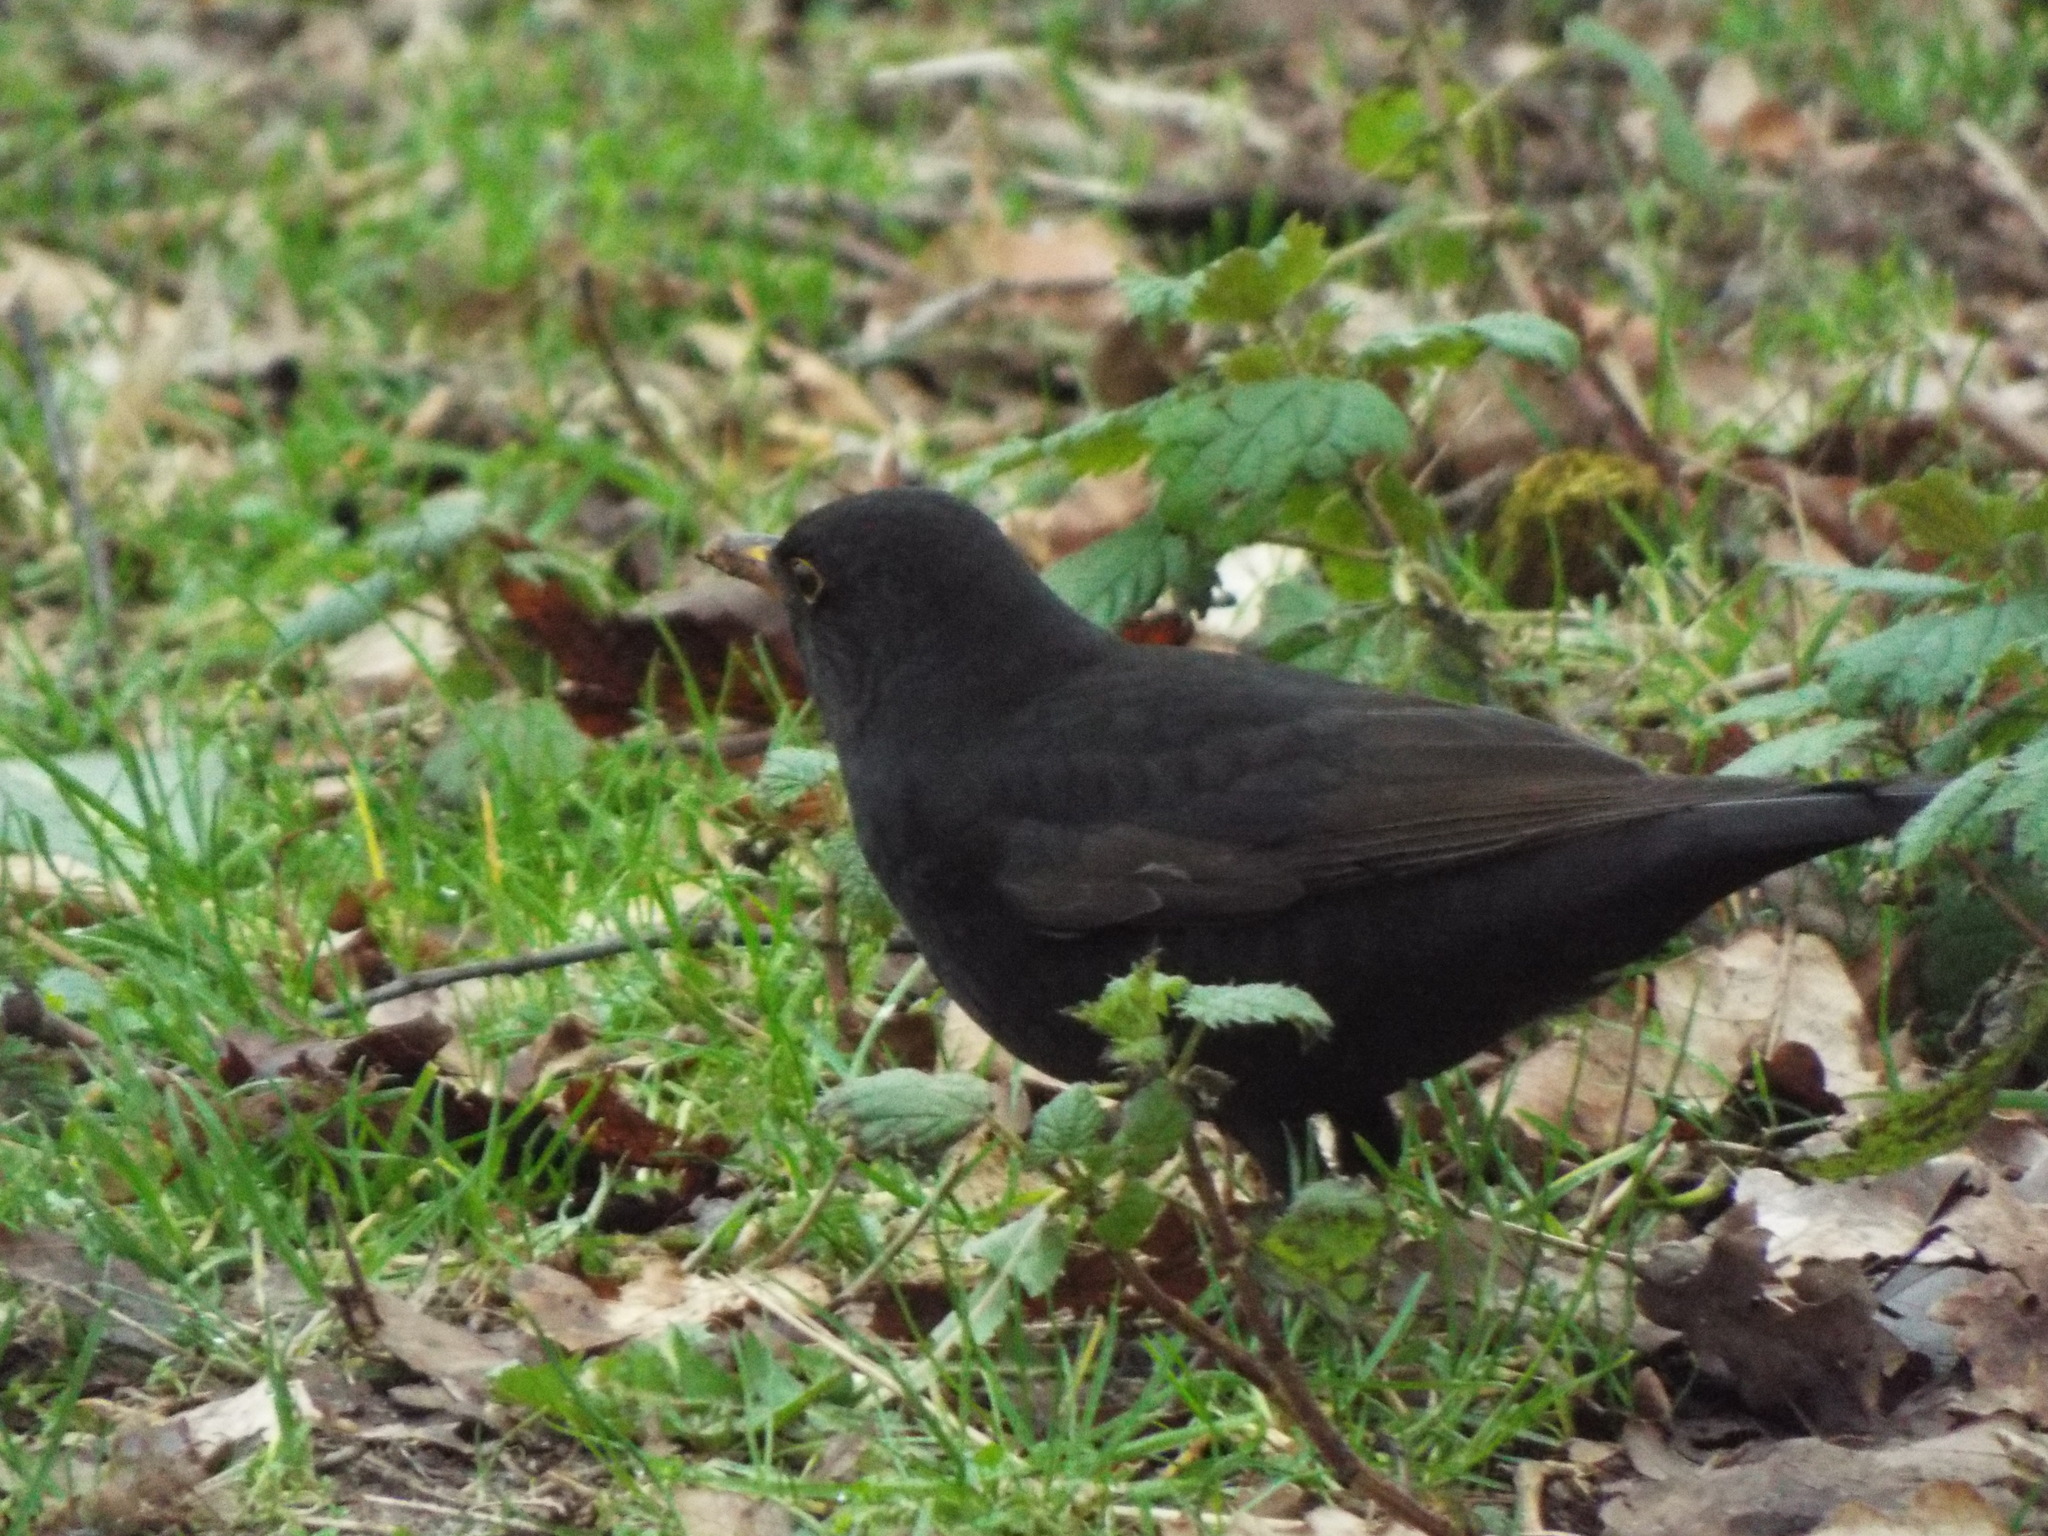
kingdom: Animalia
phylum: Chordata
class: Aves
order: Passeriformes
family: Turdidae
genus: Turdus
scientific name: Turdus merula
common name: Common blackbird
